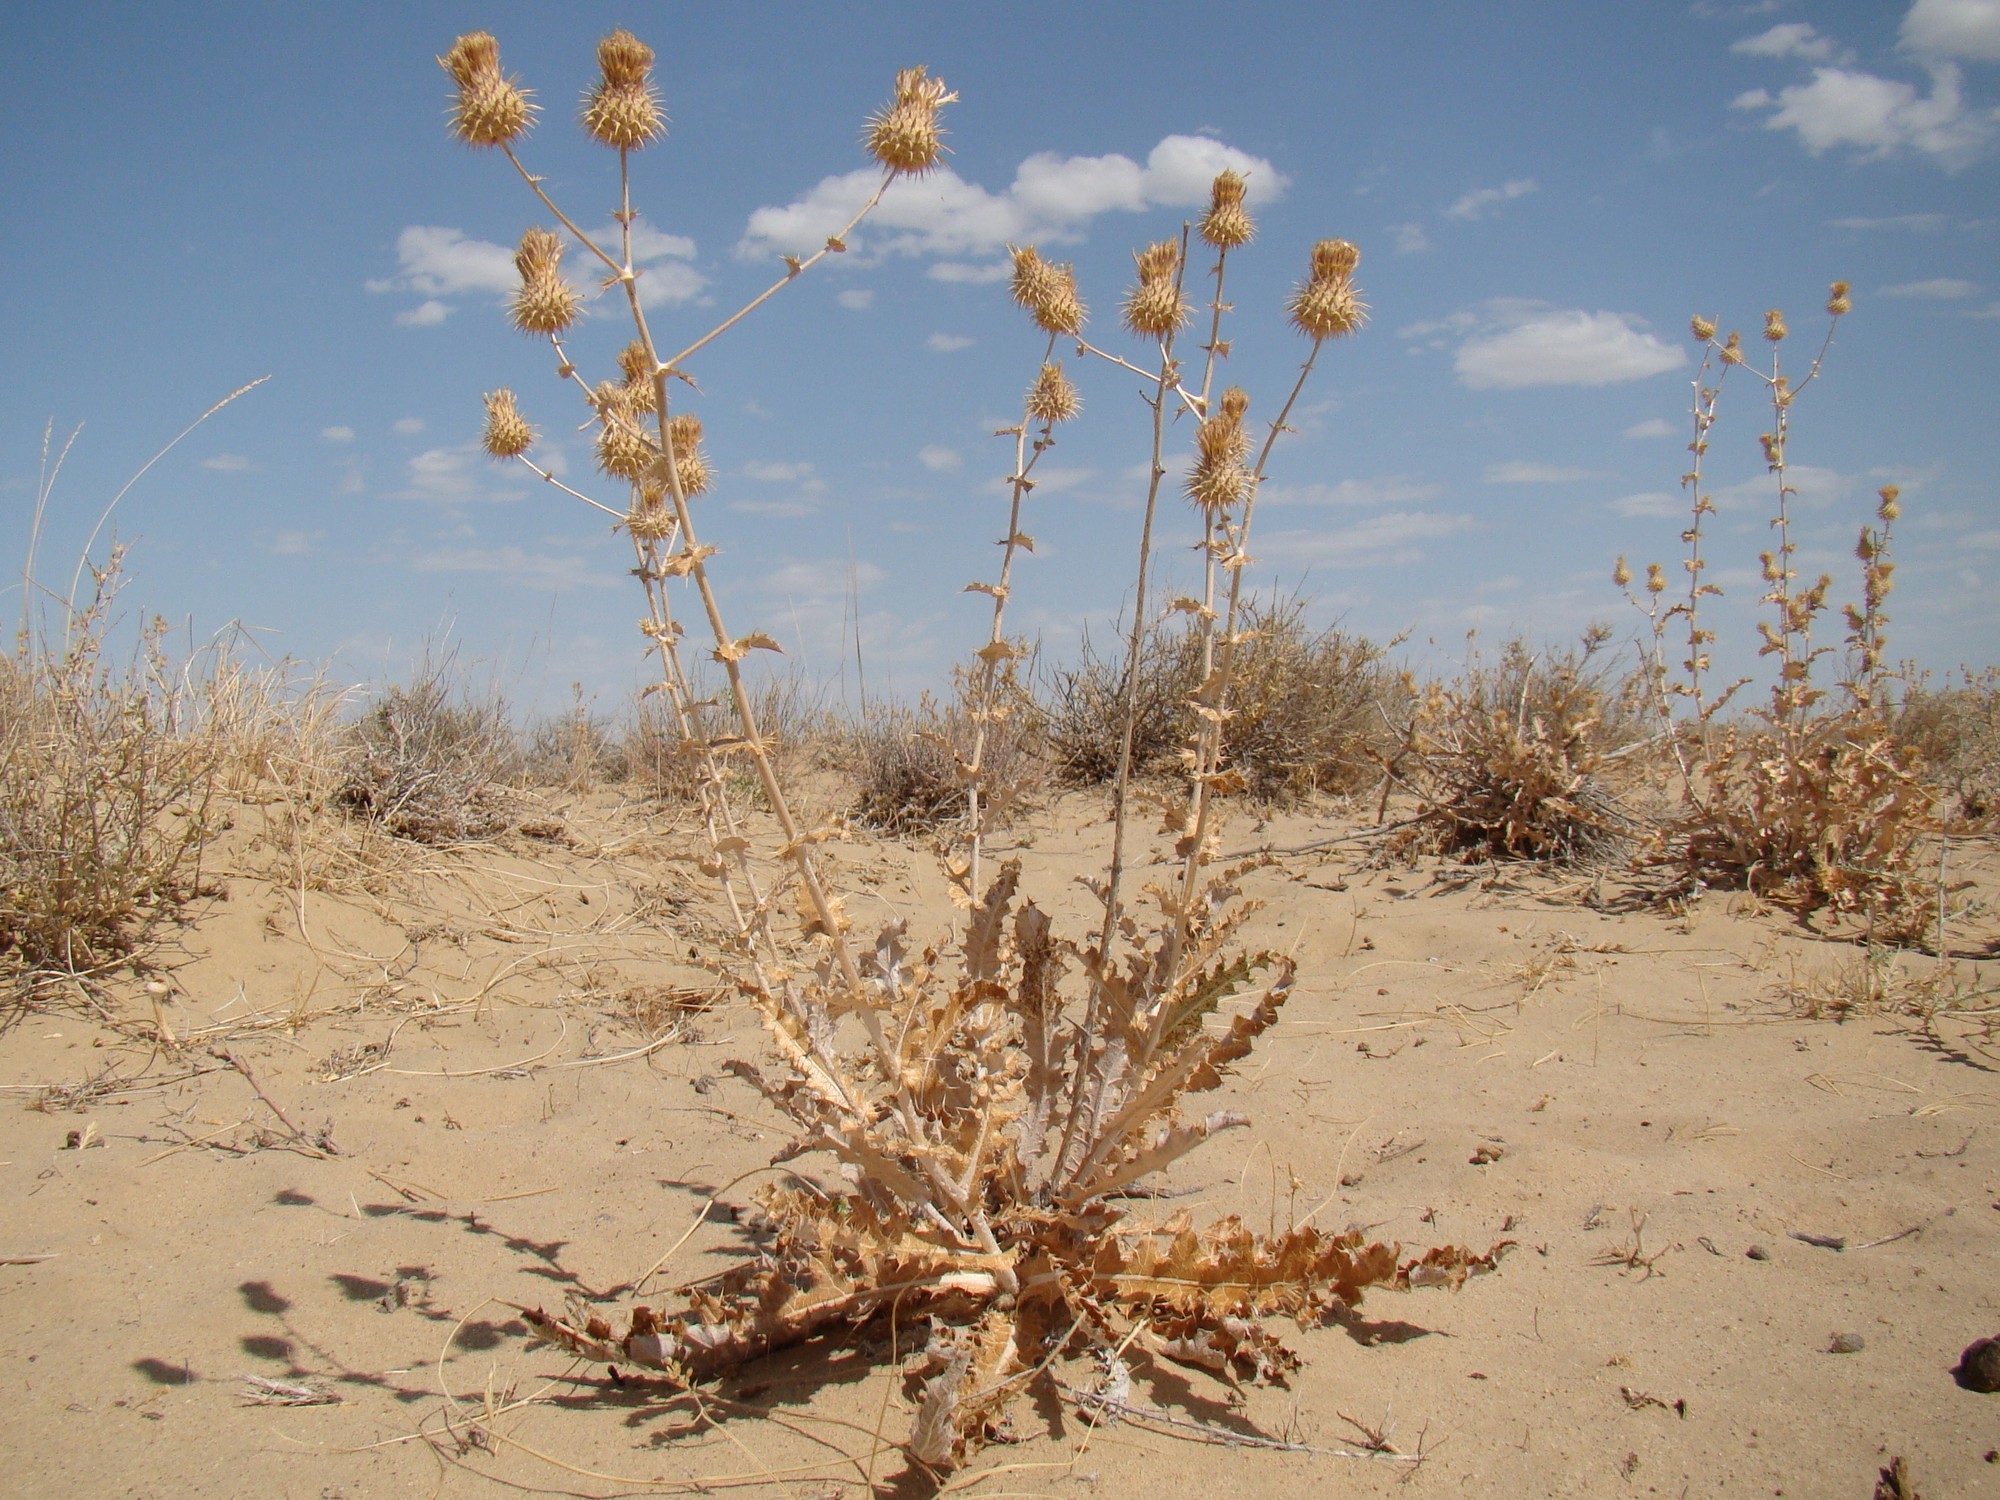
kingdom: Plantae
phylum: Tracheophyta
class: Magnoliopsida
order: Asterales
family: Asteraceae
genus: Cousinia
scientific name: Cousinia affinis
